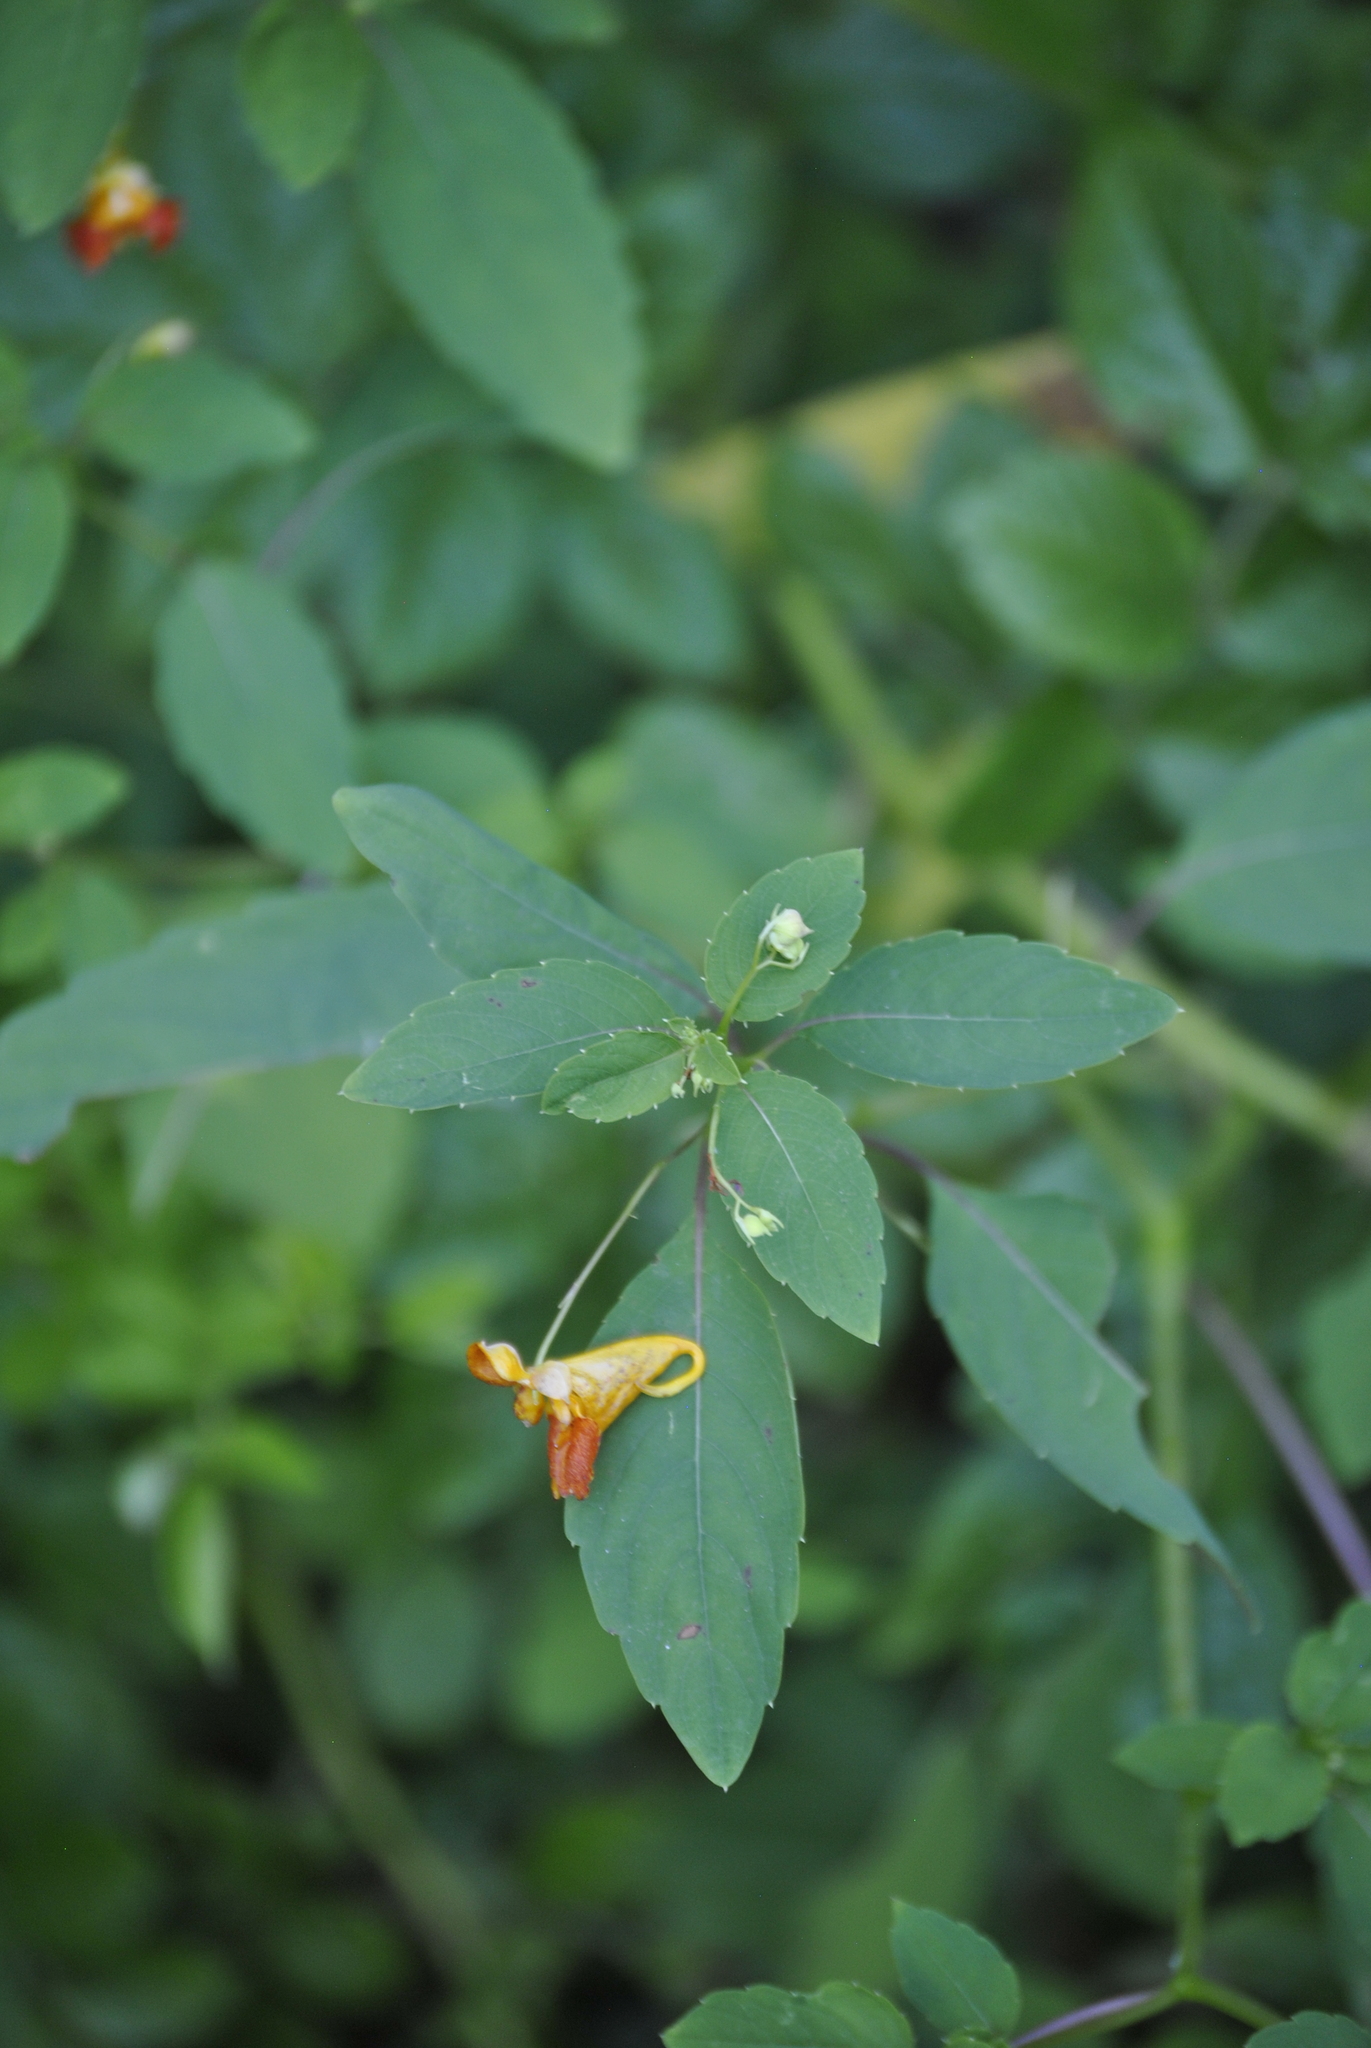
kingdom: Plantae
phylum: Tracheophyta
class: Magnoliopsida
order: Ericales
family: Balsaminaceae
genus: Impatiens
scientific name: Impatiens capensis
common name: Orange balsam
